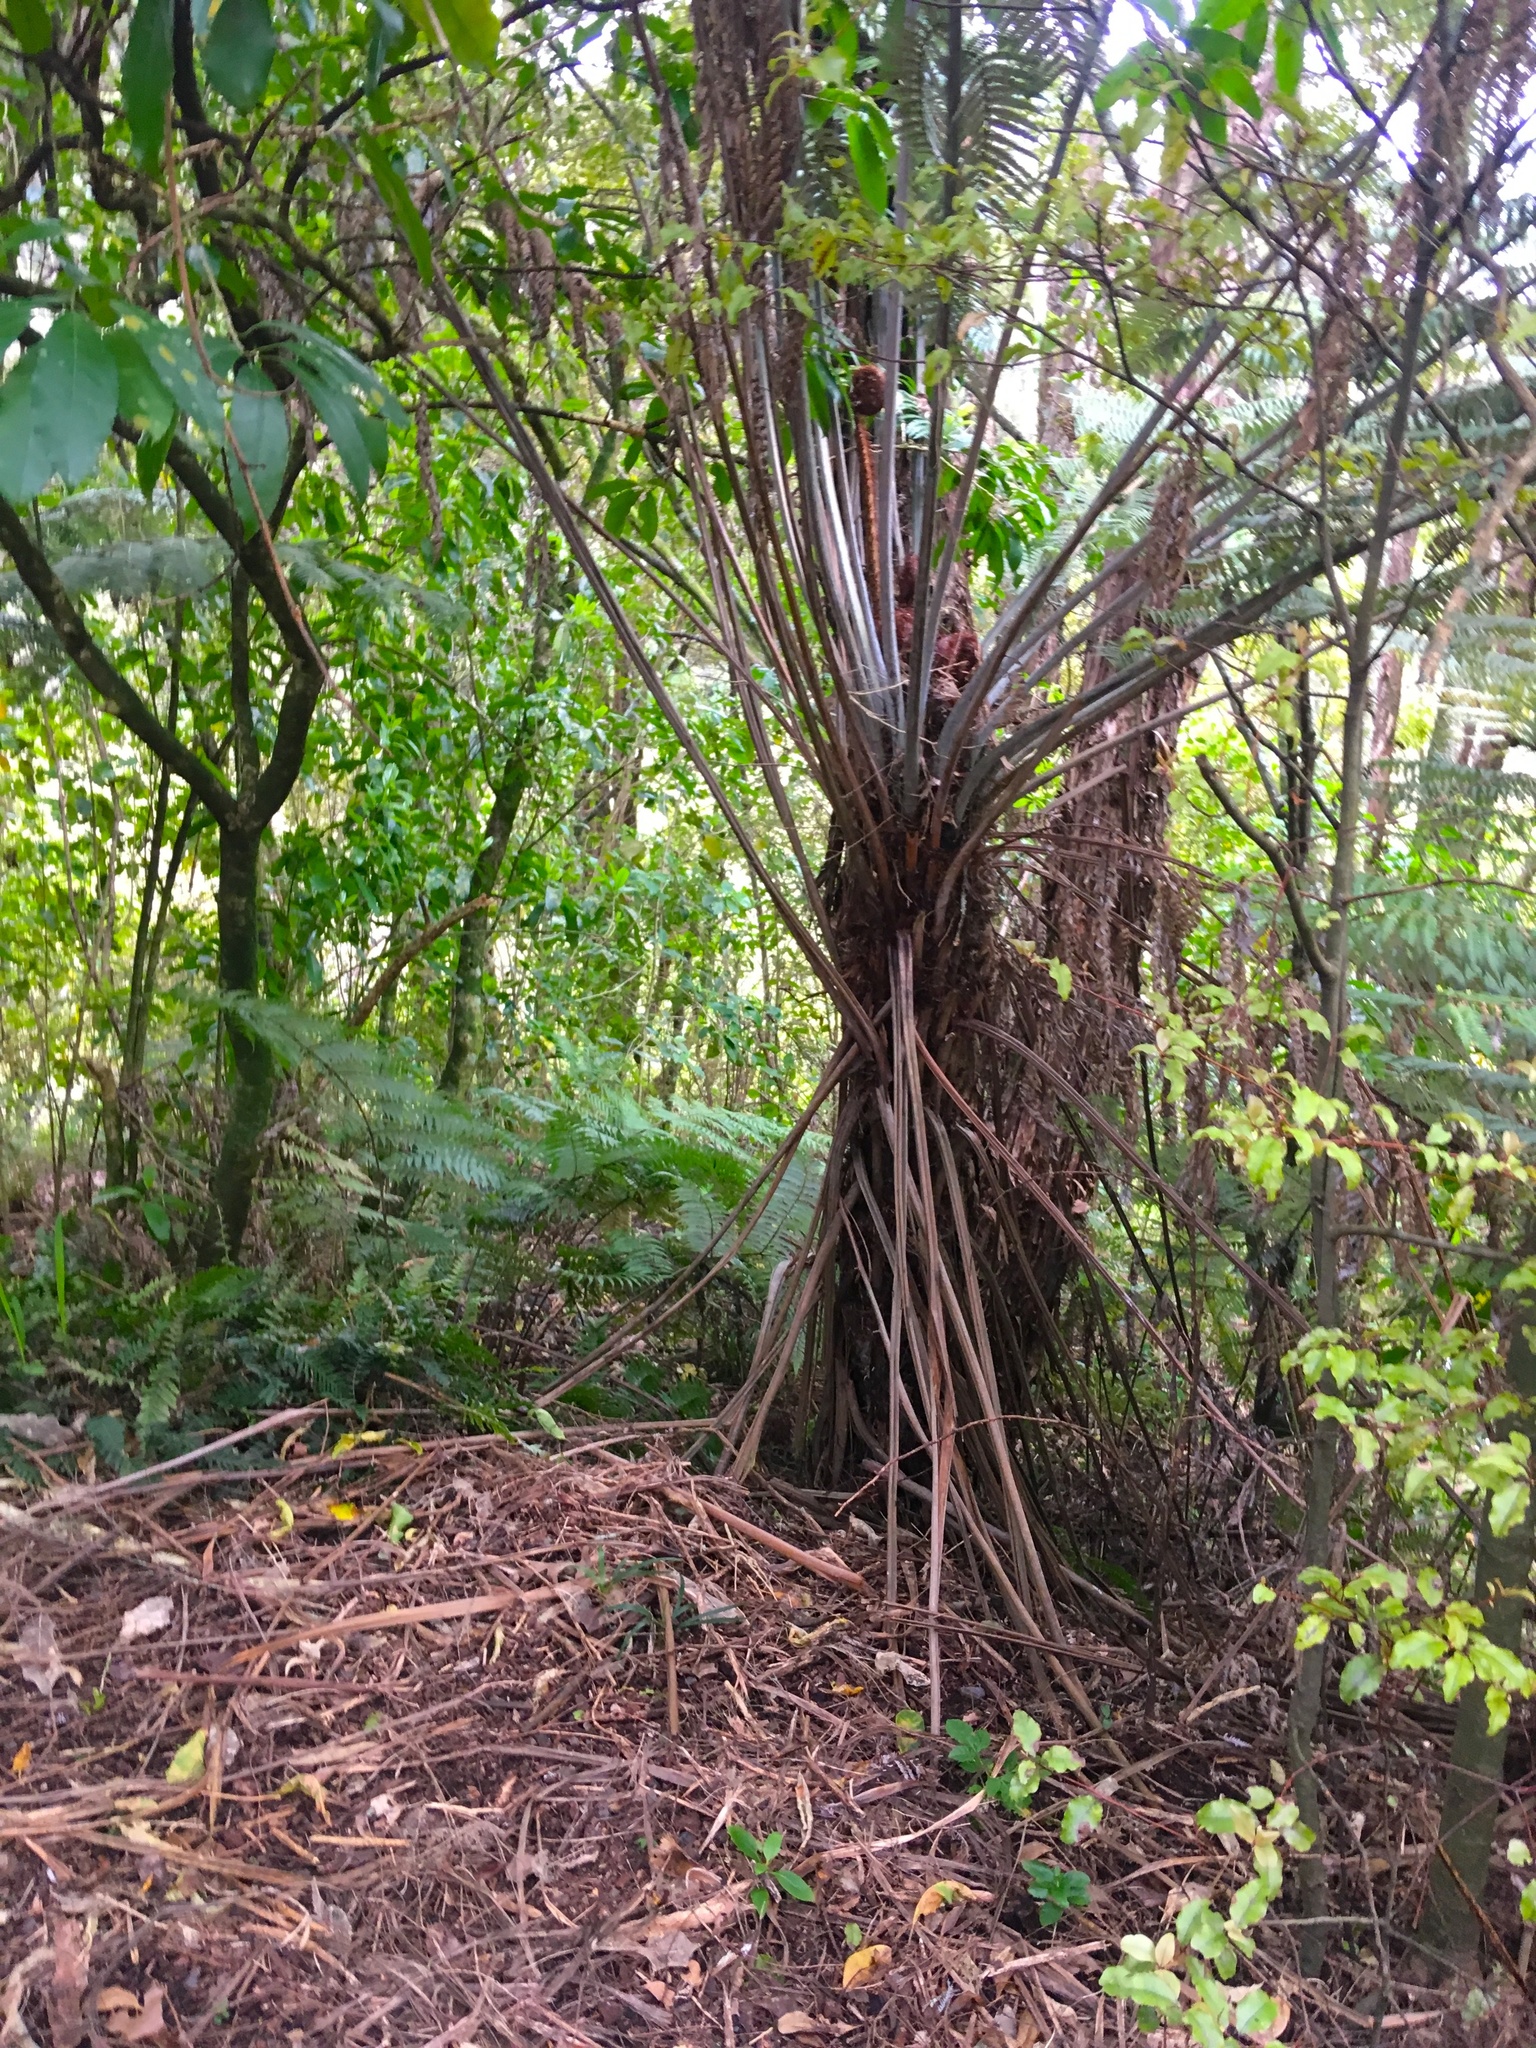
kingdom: Plantae
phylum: Tracheophyta
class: Polypodiopsida
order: Cyatheales
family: Cyatheaceae
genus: Alsophila
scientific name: Alsophila dealbata
